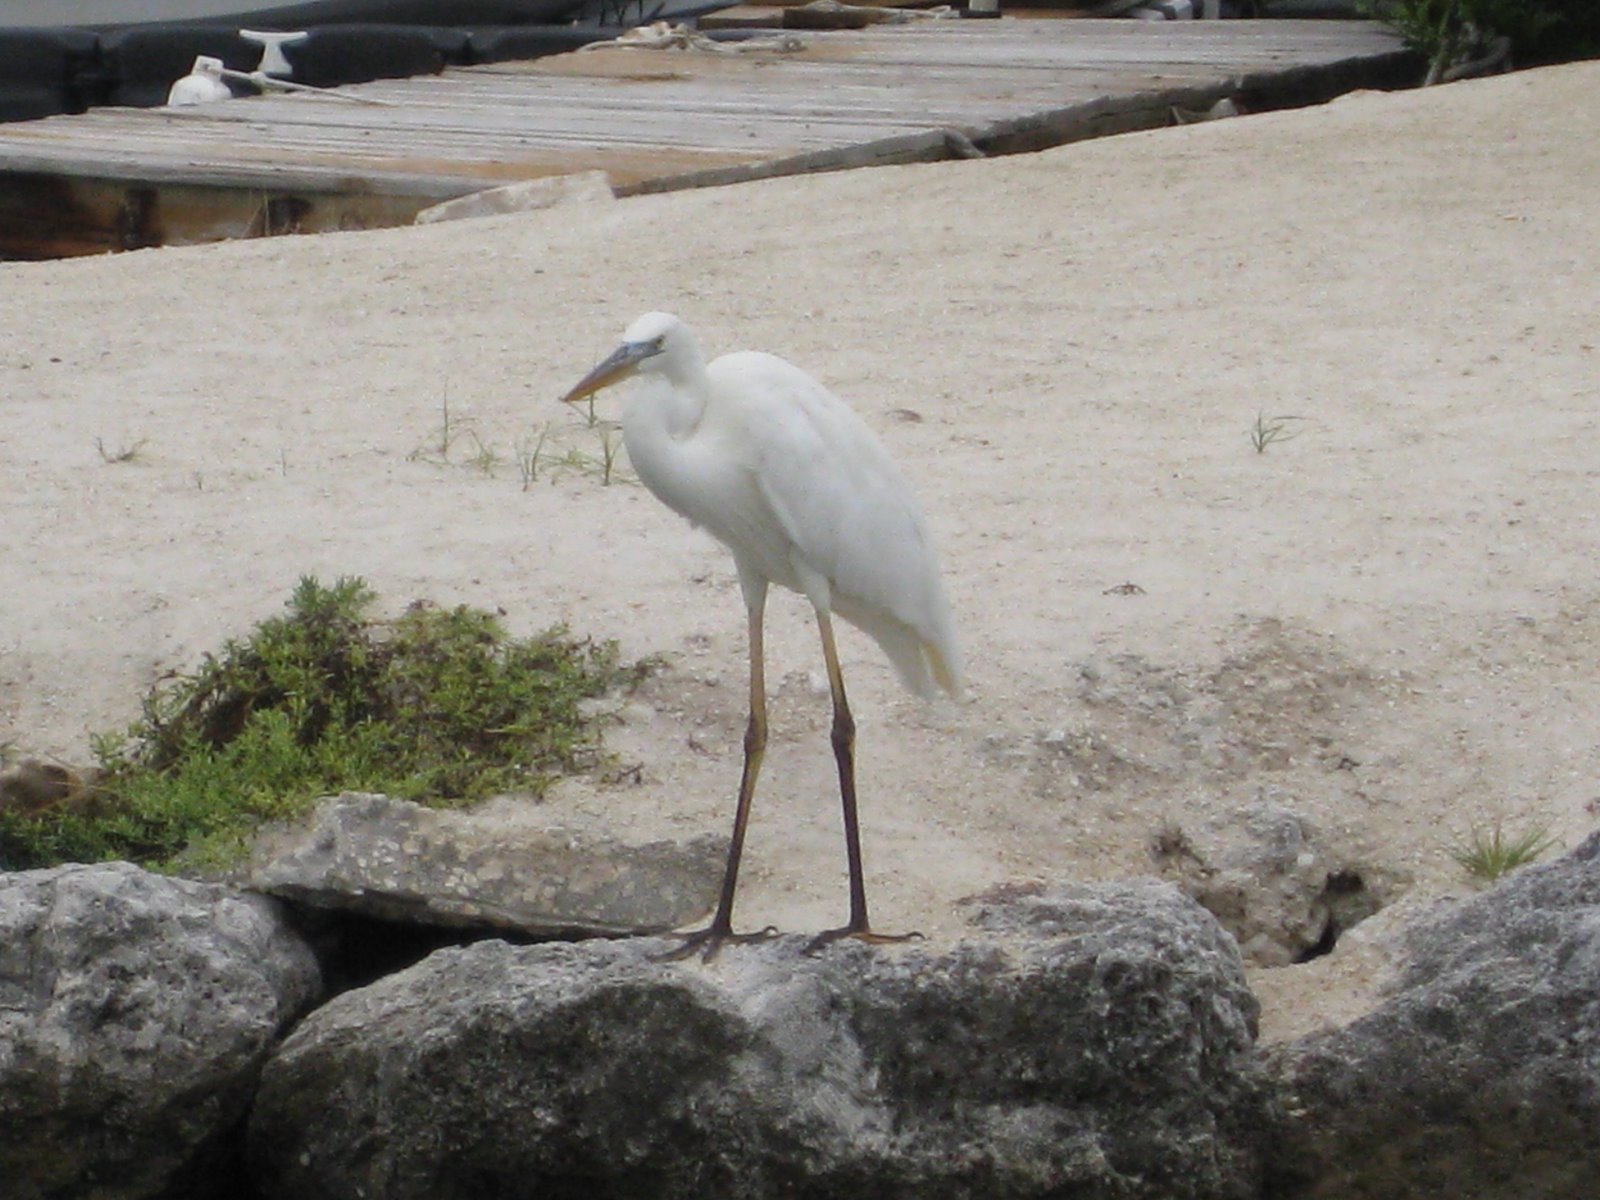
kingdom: Animalia
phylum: Chordata
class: Aves
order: Pelecaniformes
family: Ardeidae
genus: Ardea
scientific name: Ardea herodias
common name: Great blue heron
